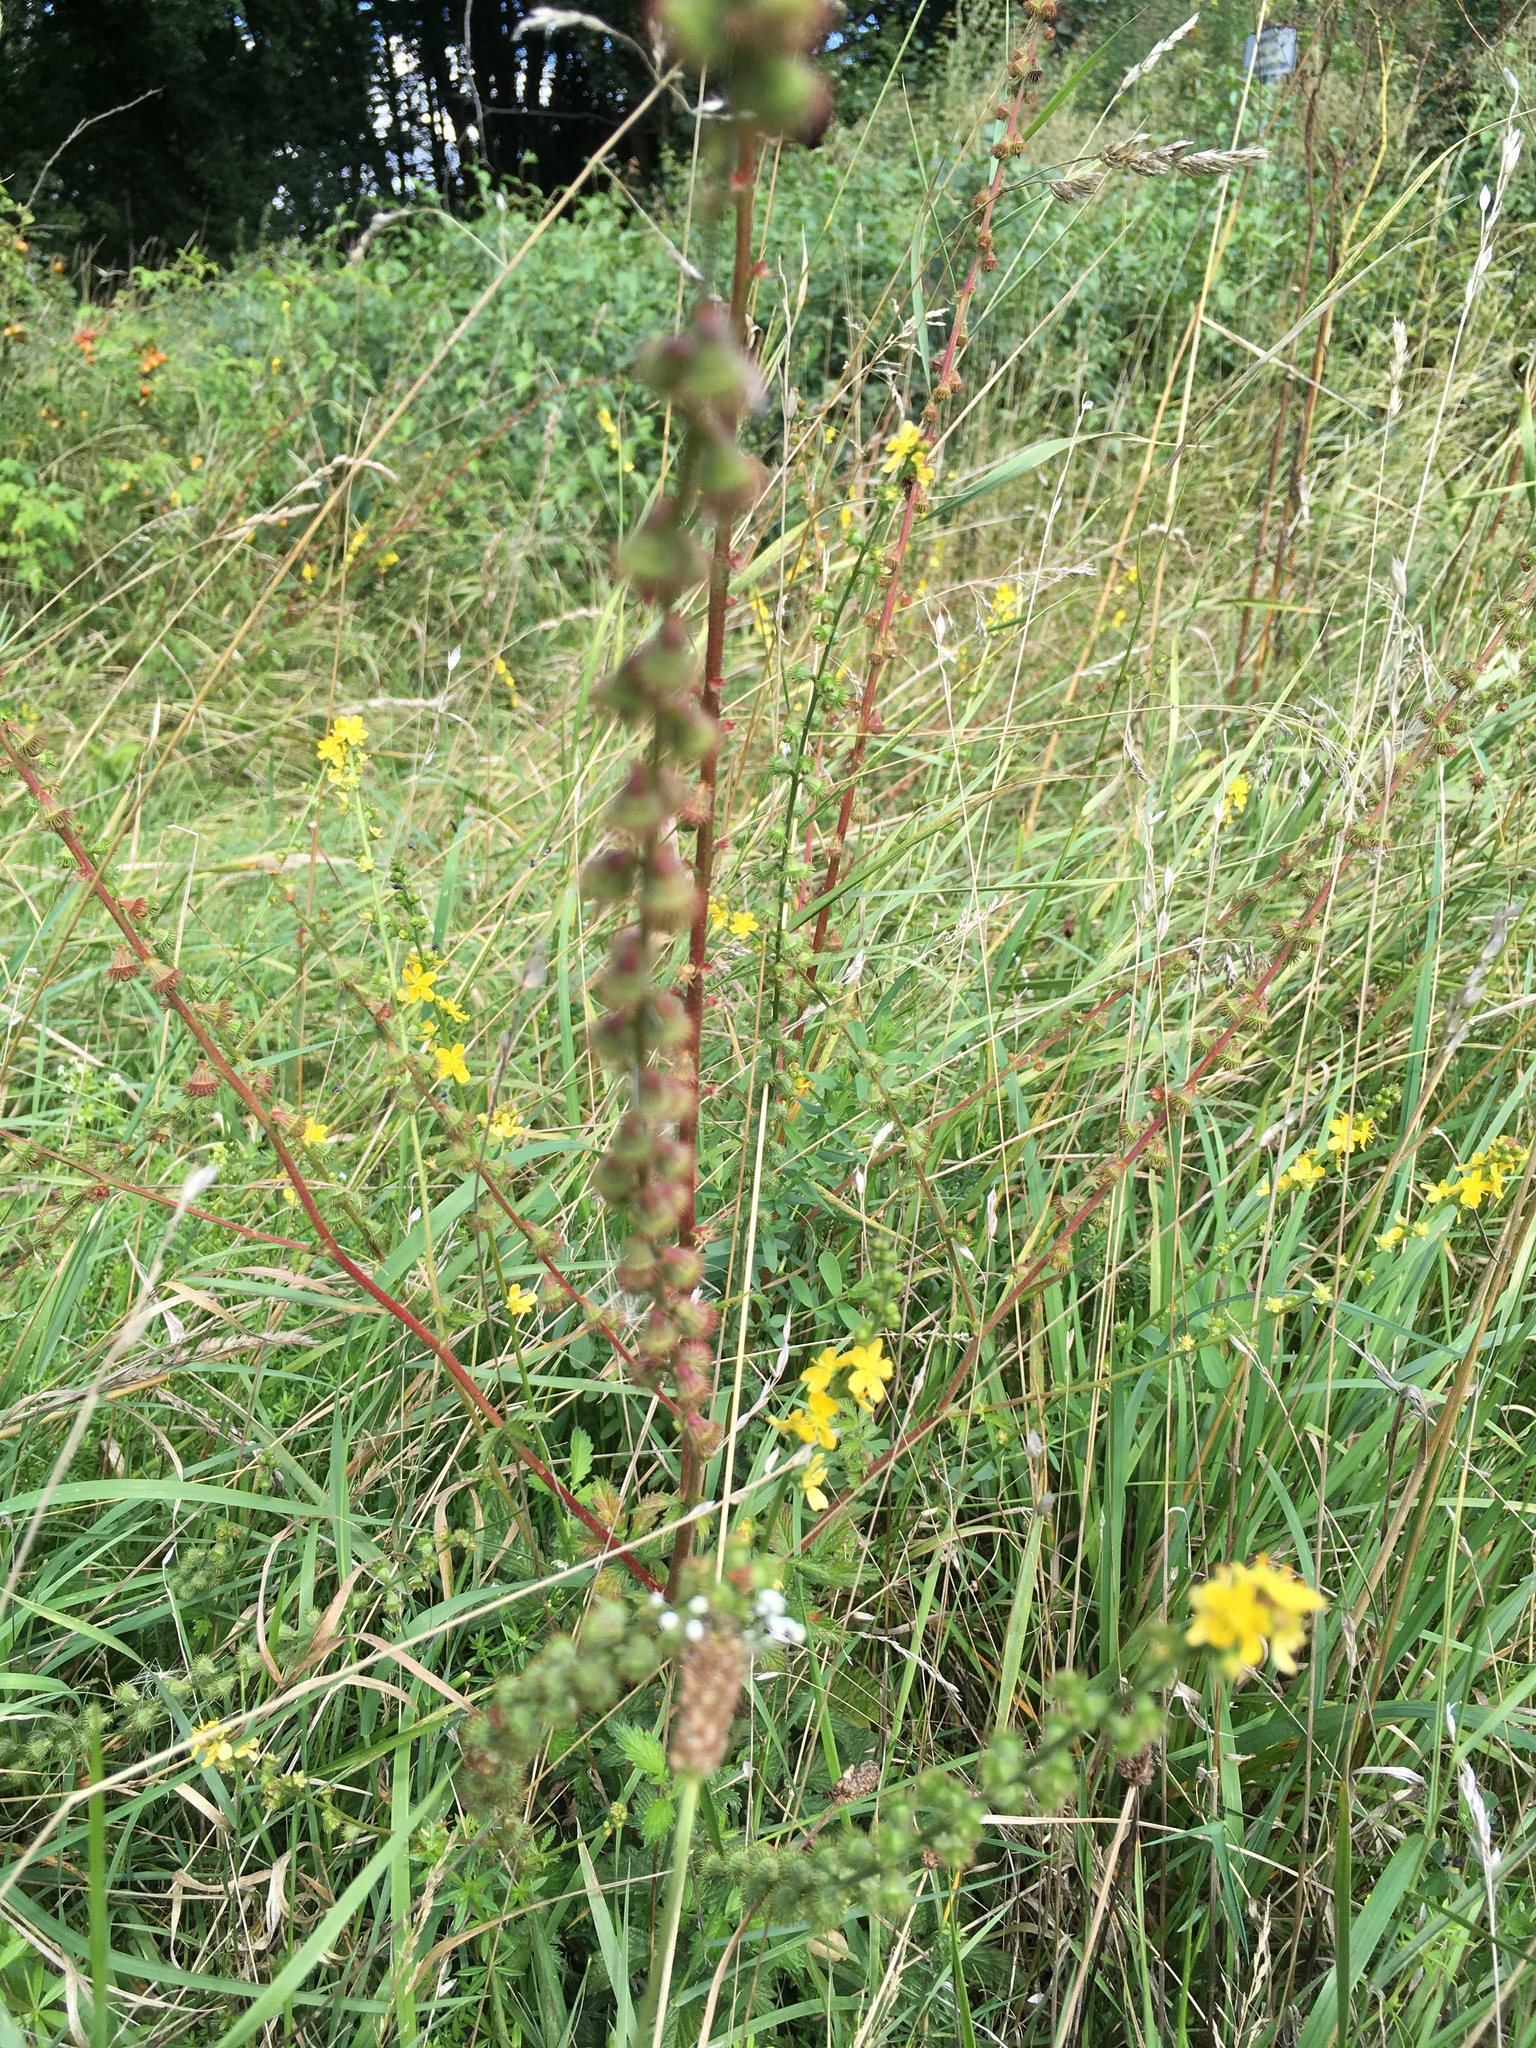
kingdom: Plantae
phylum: Tracheophyta
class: Magnoliopsida
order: Rosales
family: Rosaceae
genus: Agrimonia
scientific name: Agrimonia eupatoria
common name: Agrimony
